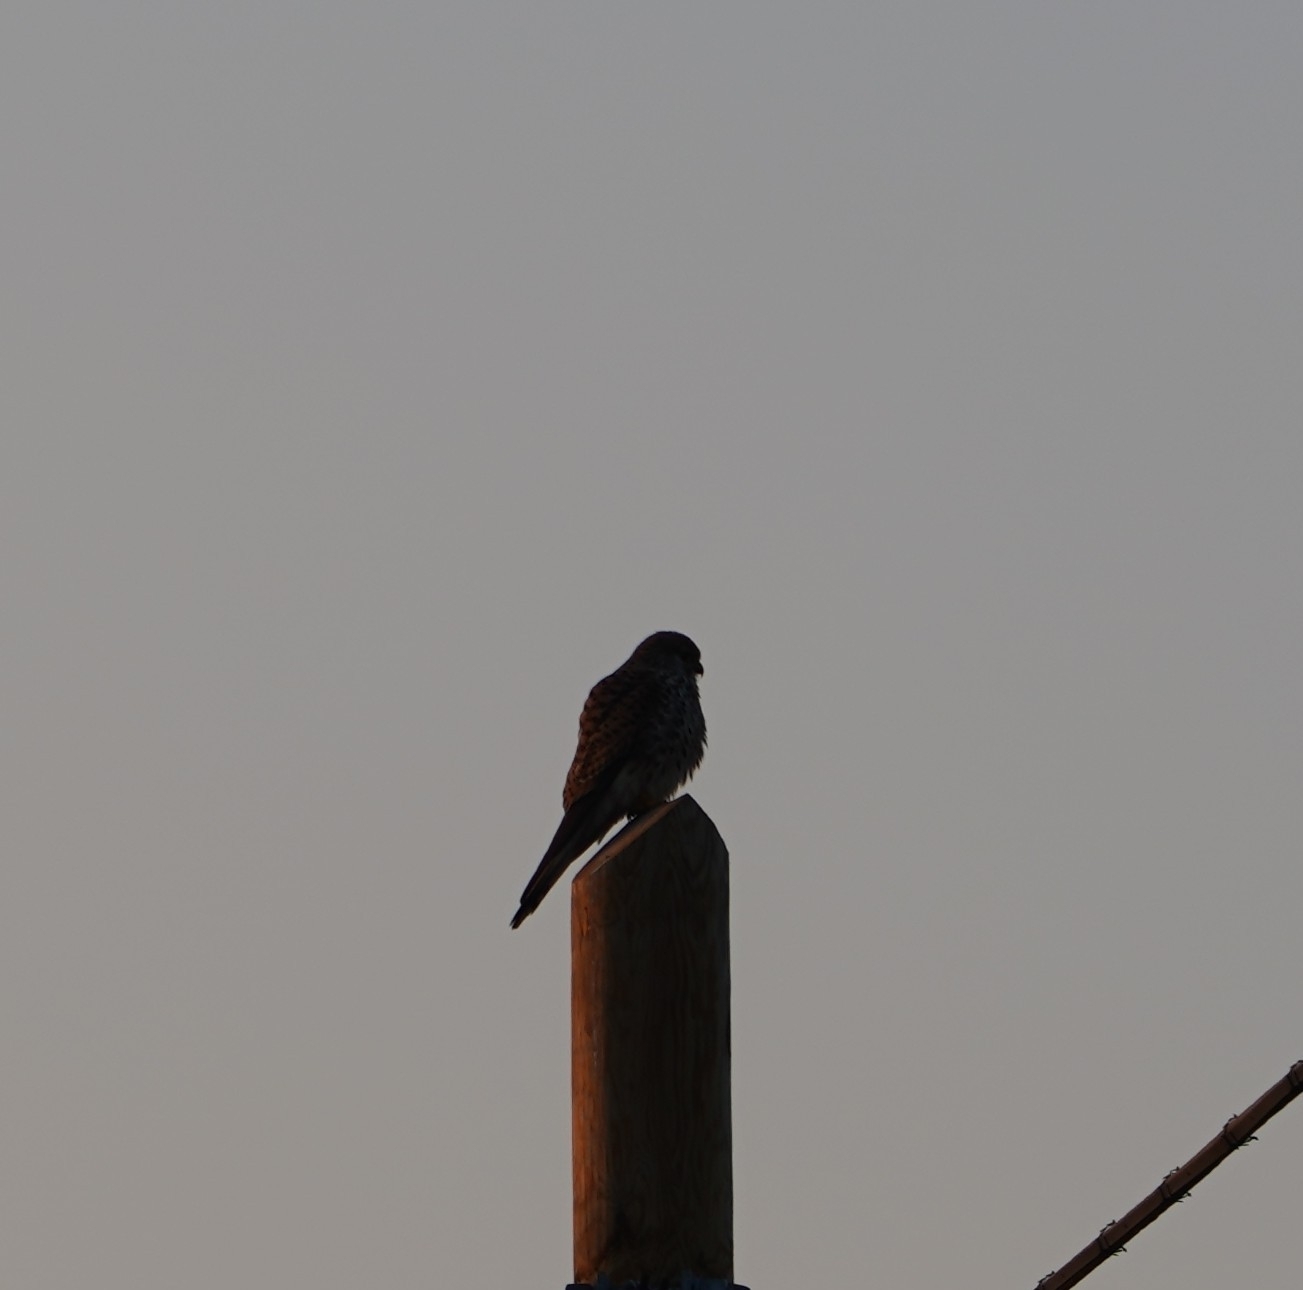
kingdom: Animalia
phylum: Chordata
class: Aves
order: Falconiformes
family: Falconidae
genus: Falco
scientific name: Falco tinnunculus
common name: Common kestrel
